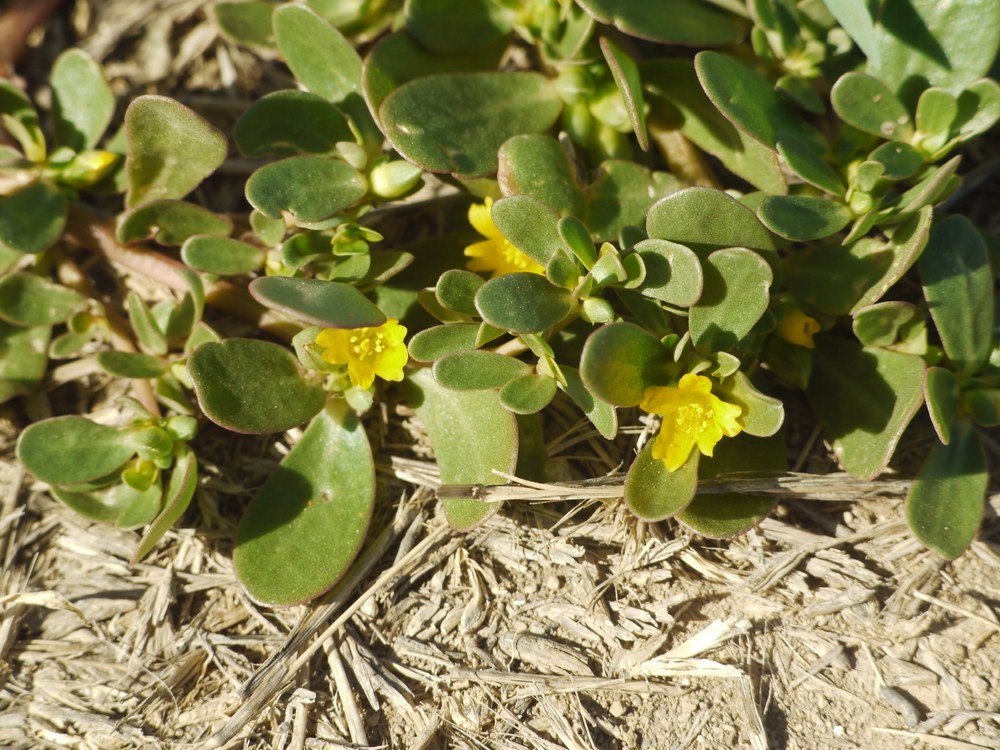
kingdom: Plantae
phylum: Tracheophyta
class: Magnoliopsida
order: Caryophyllales
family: Portulacaceae
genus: Portulaca
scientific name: Portulaca oleracea
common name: Common purslane
